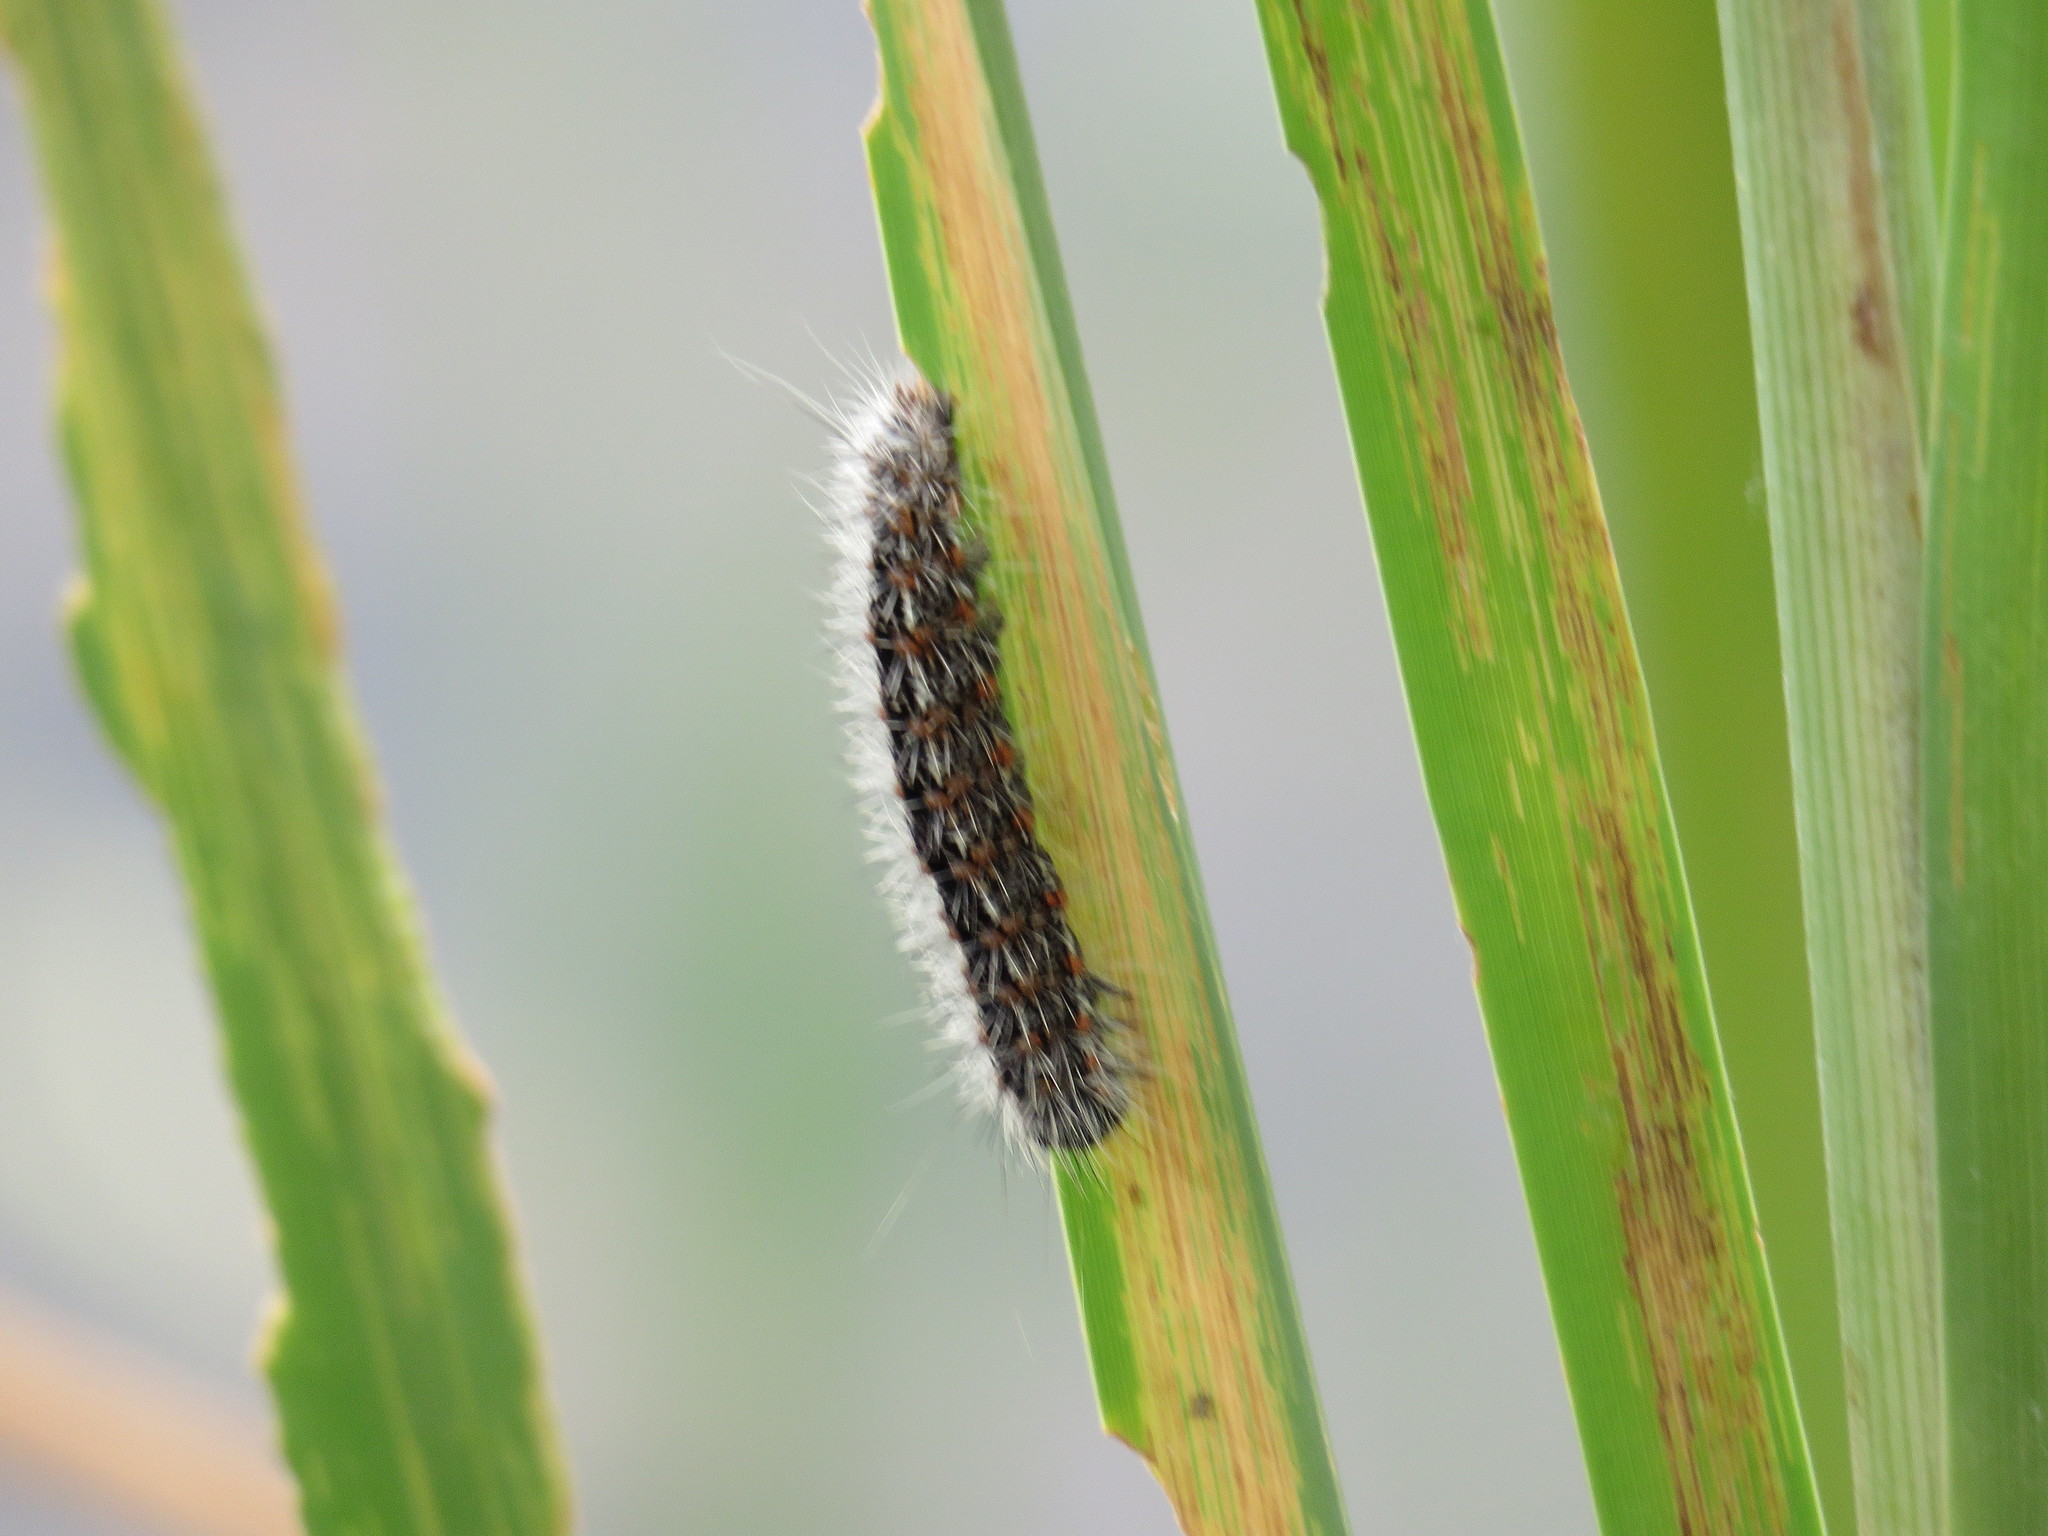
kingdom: Animalia
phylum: Arthropoda
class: Insecta
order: Lepidoptera
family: Noctuidae
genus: Acronicta
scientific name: Acronicta insularis
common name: Henry's marsh moth
